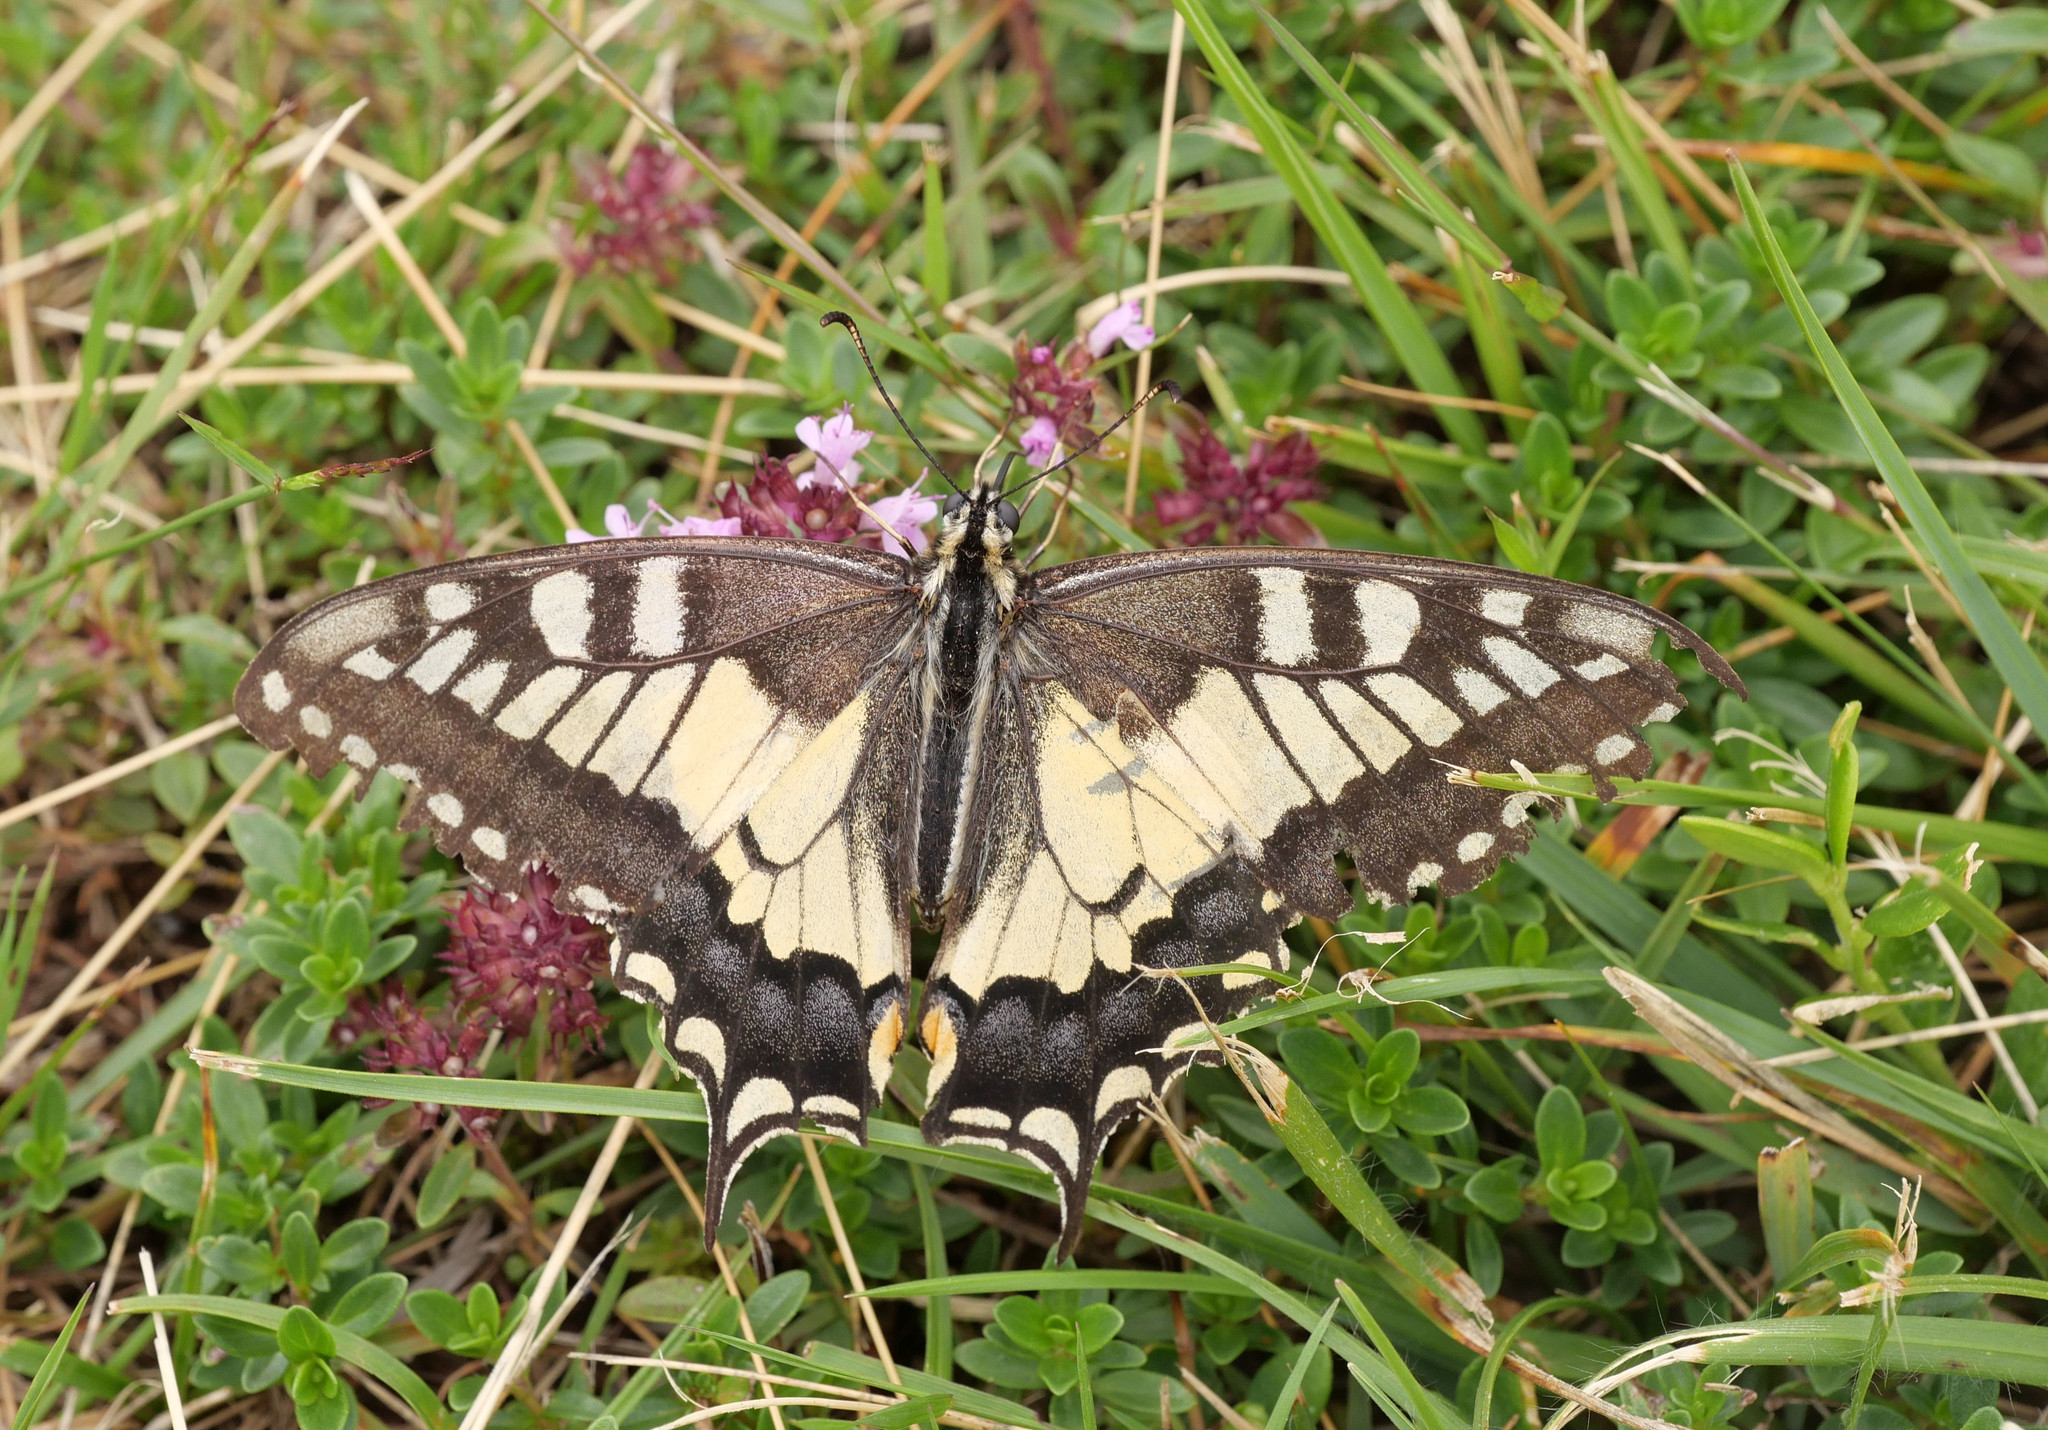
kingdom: Animalia
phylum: Arthropoda
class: Insecta
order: Lepidoptera
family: Papilionidae
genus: Papilio
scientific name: Papilio machaon
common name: Swallowtail
